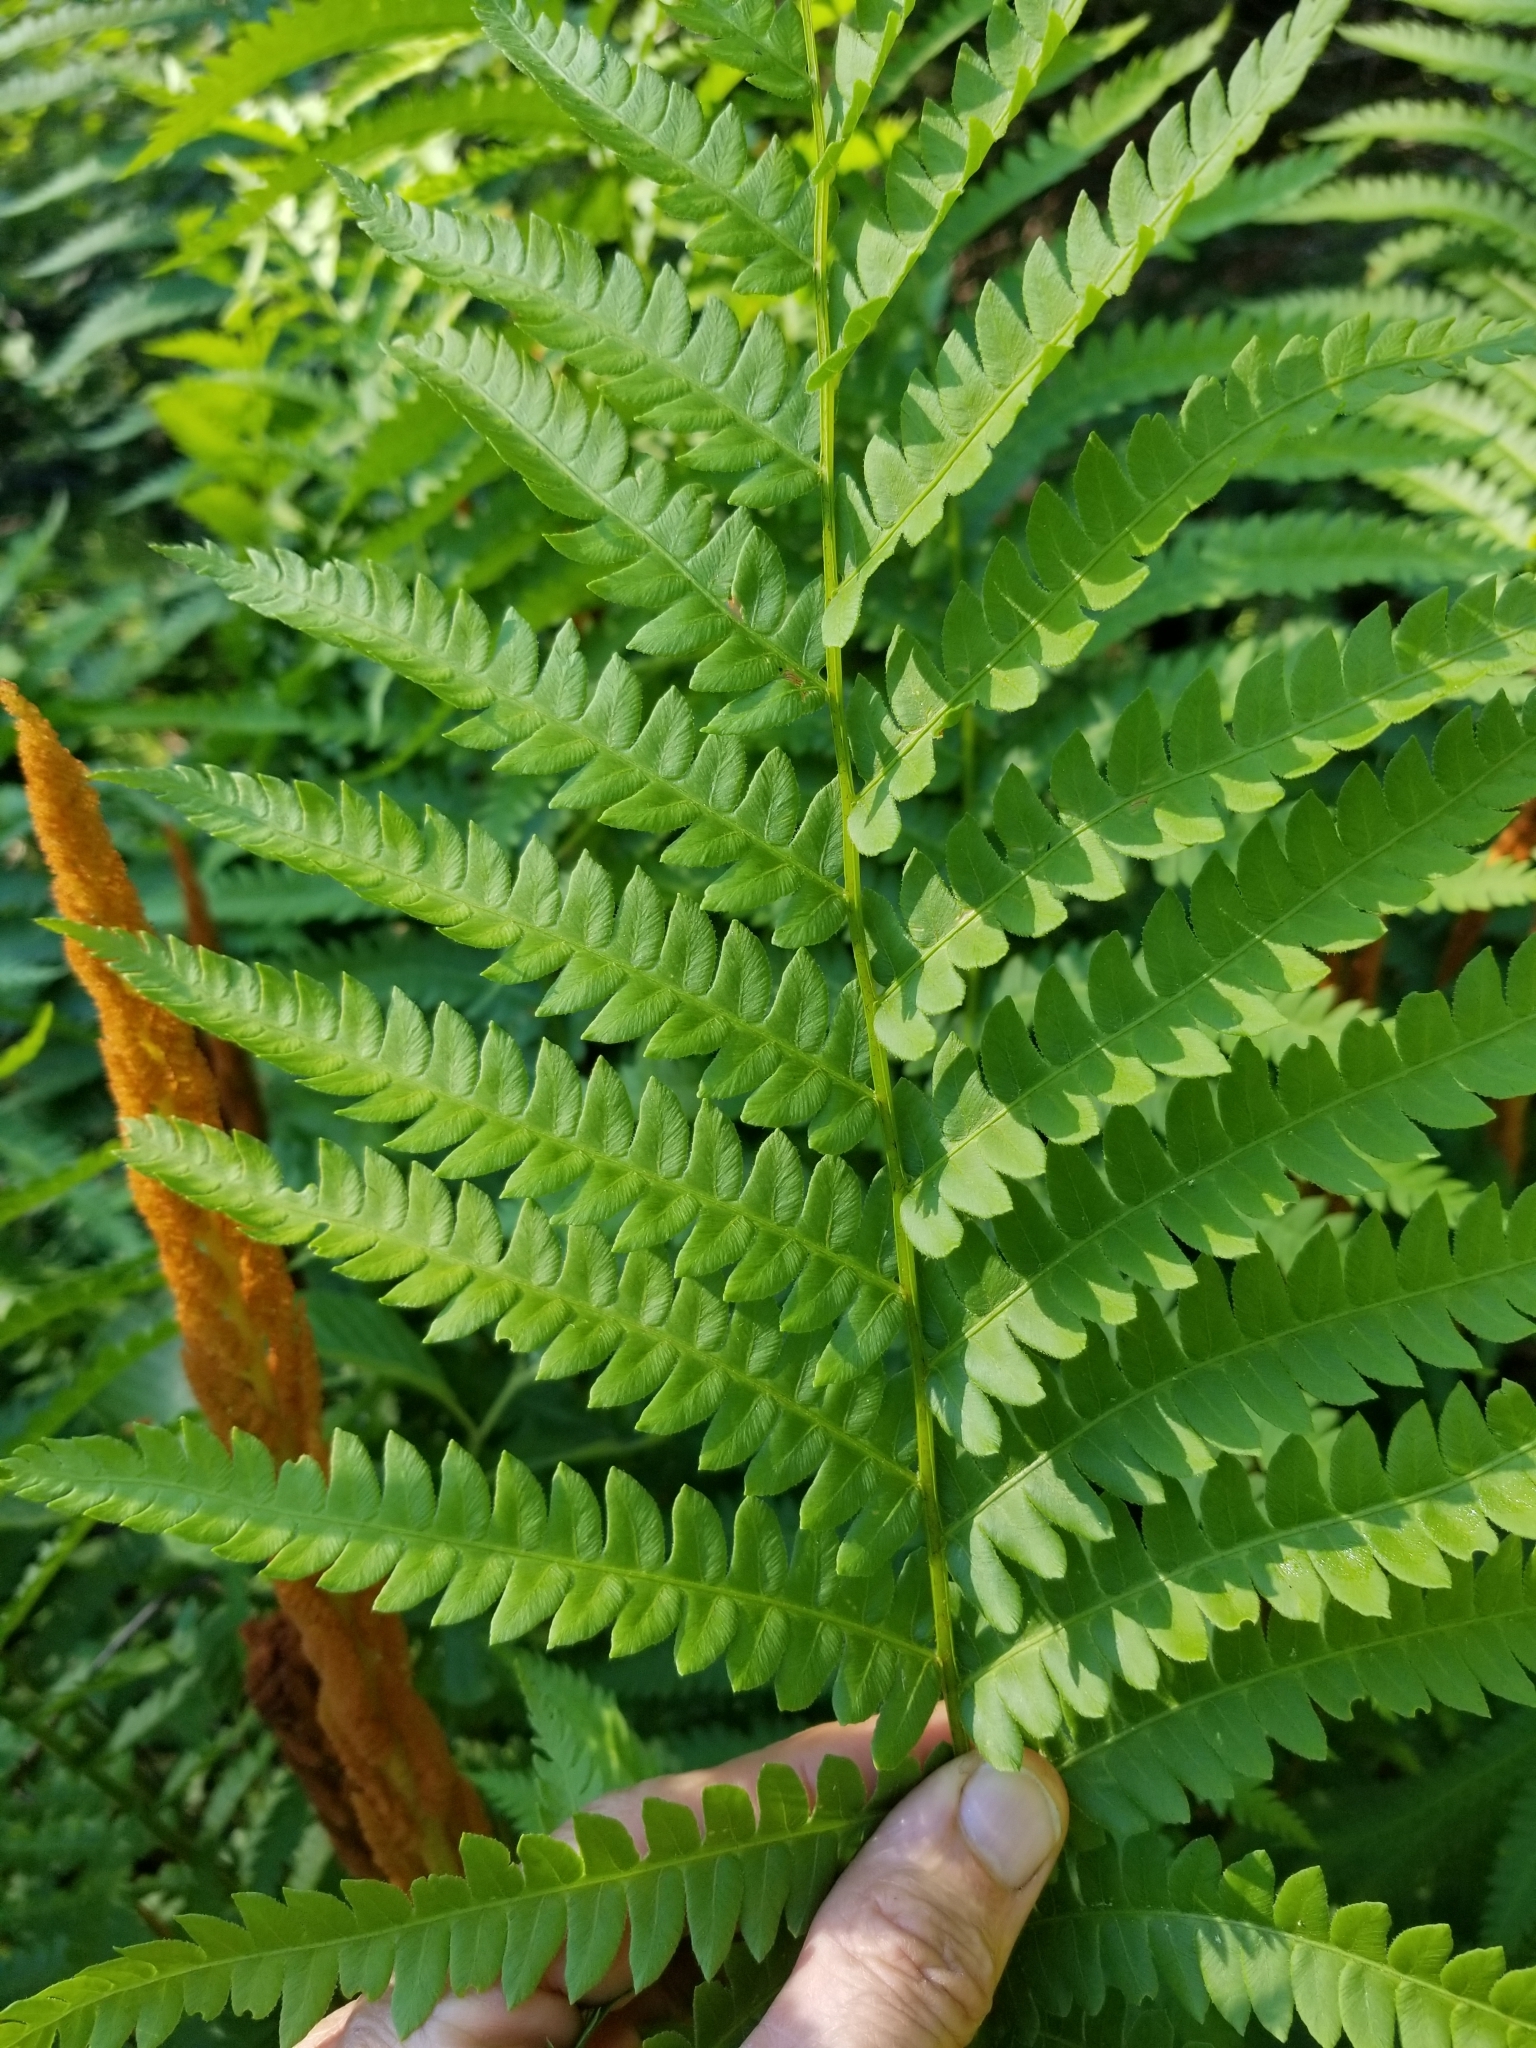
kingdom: Plantae
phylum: Tracheophyta
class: Polypodiopsida
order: Osmundales
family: Osmundaceae
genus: Osmundastrum
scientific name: Osmundastrum cinnamomeum
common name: Cinnamon fern
